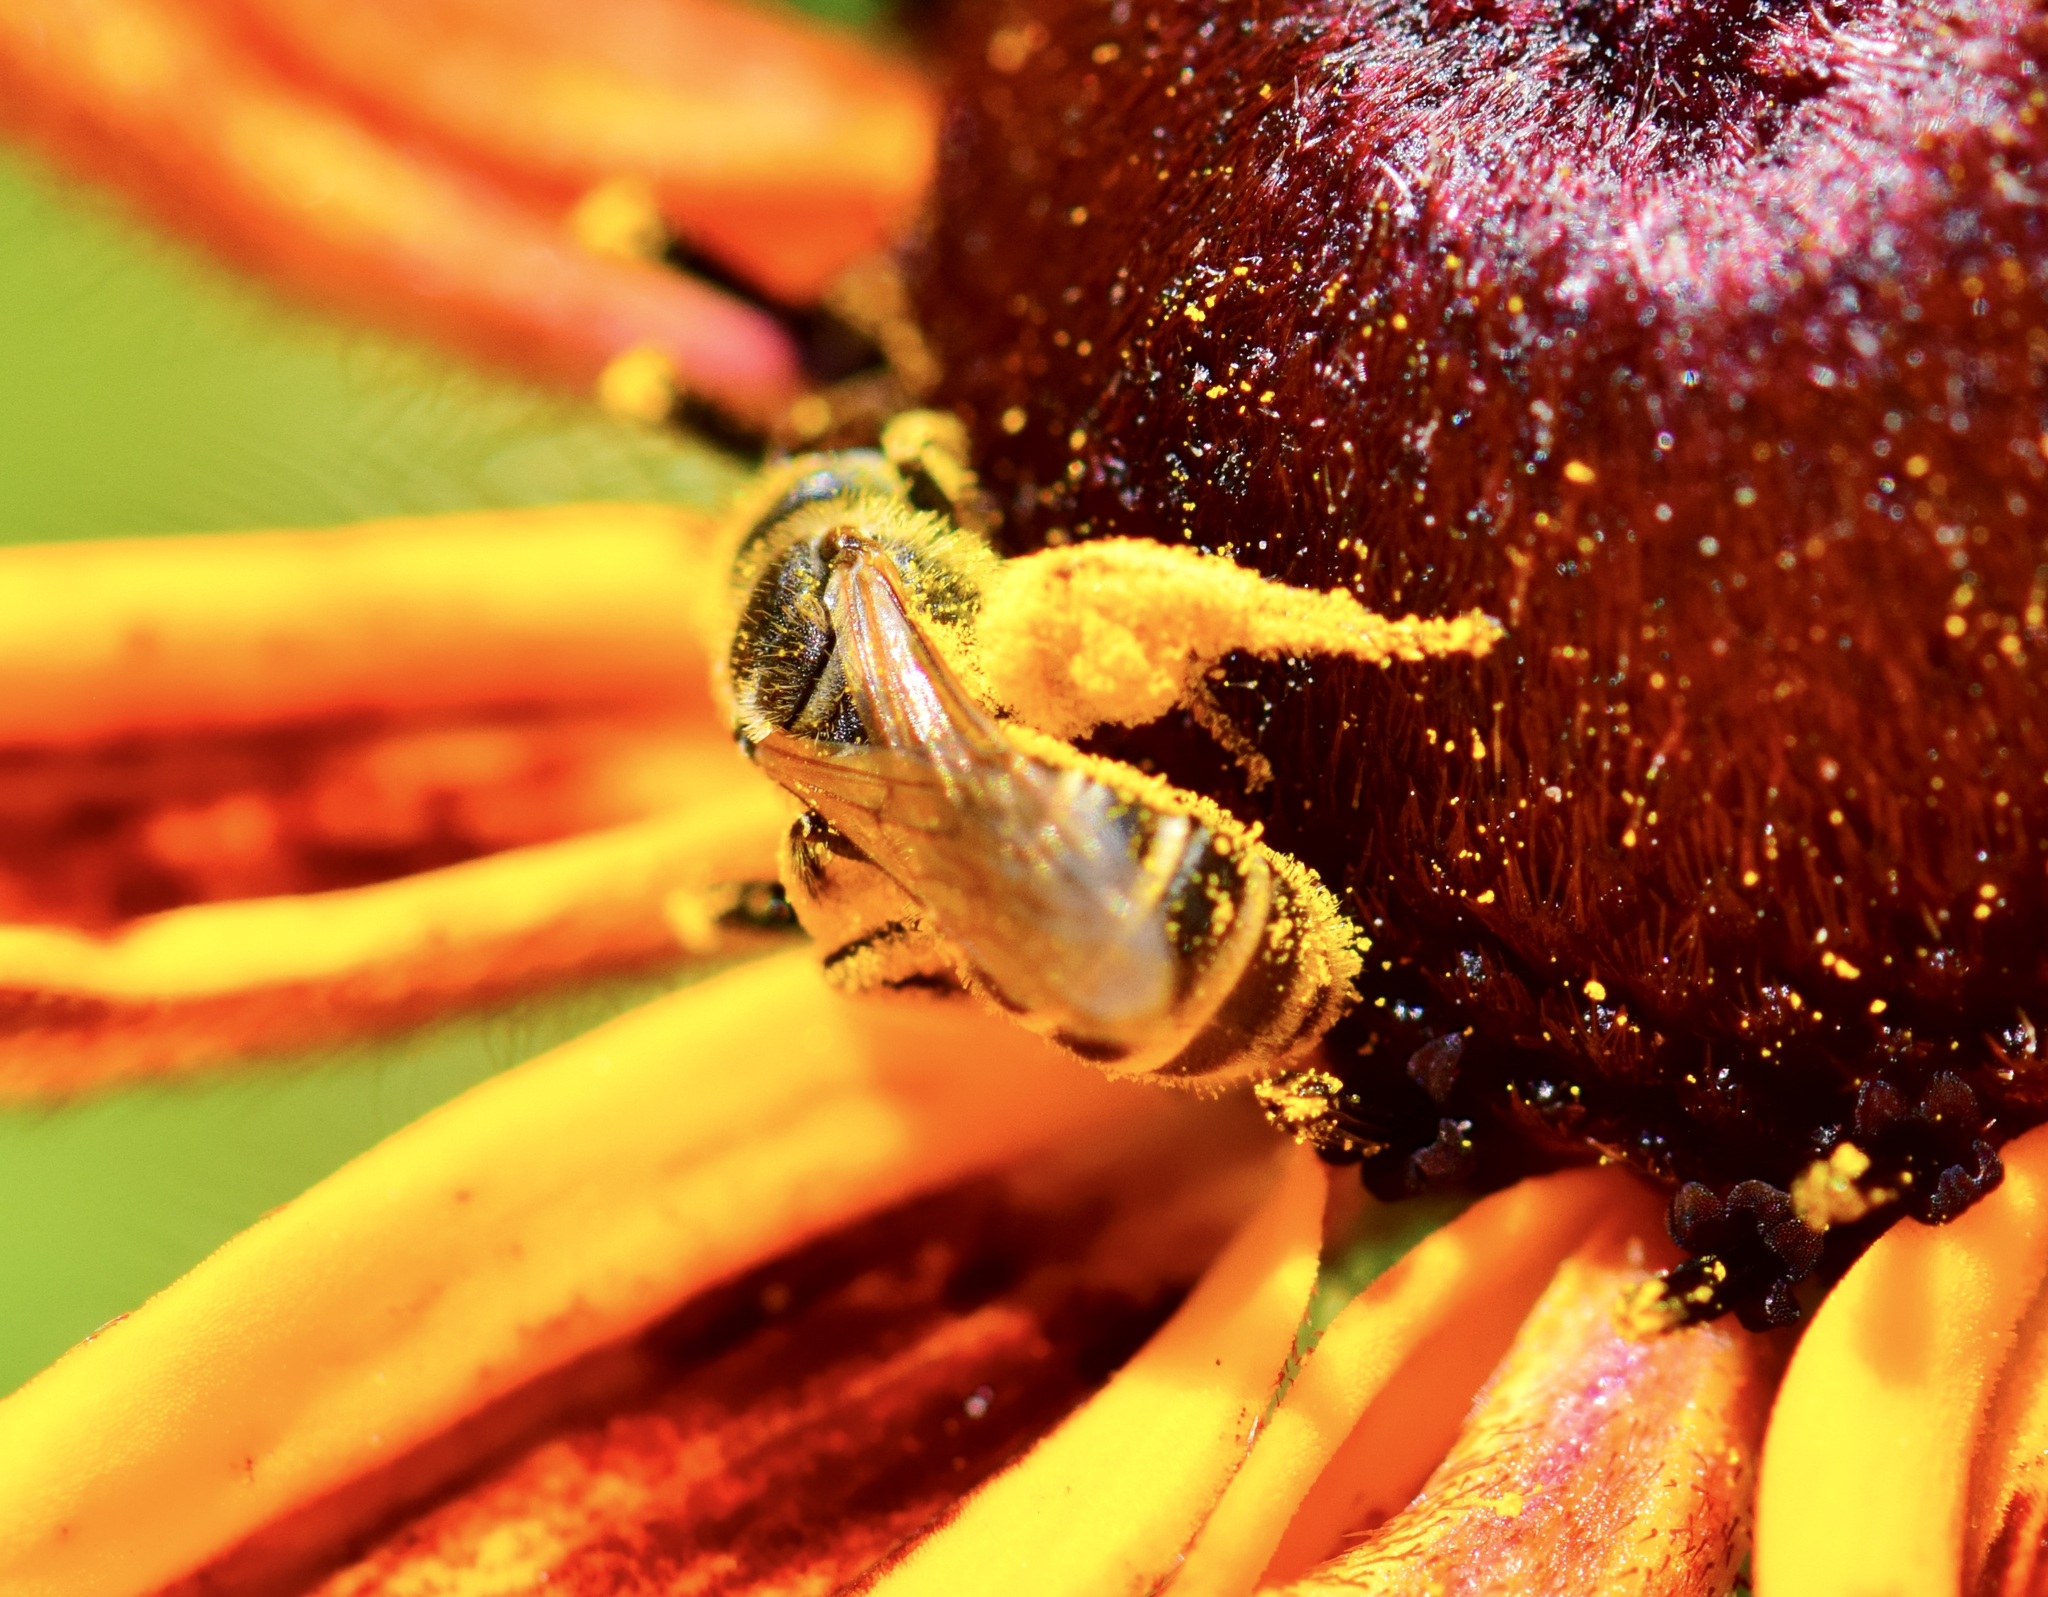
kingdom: Animalia
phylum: Arthropoda
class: Insecta
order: Hymenoptera
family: Halictidae
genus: Halictus
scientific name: Halictus ligatus
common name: Ligated furrow bee
